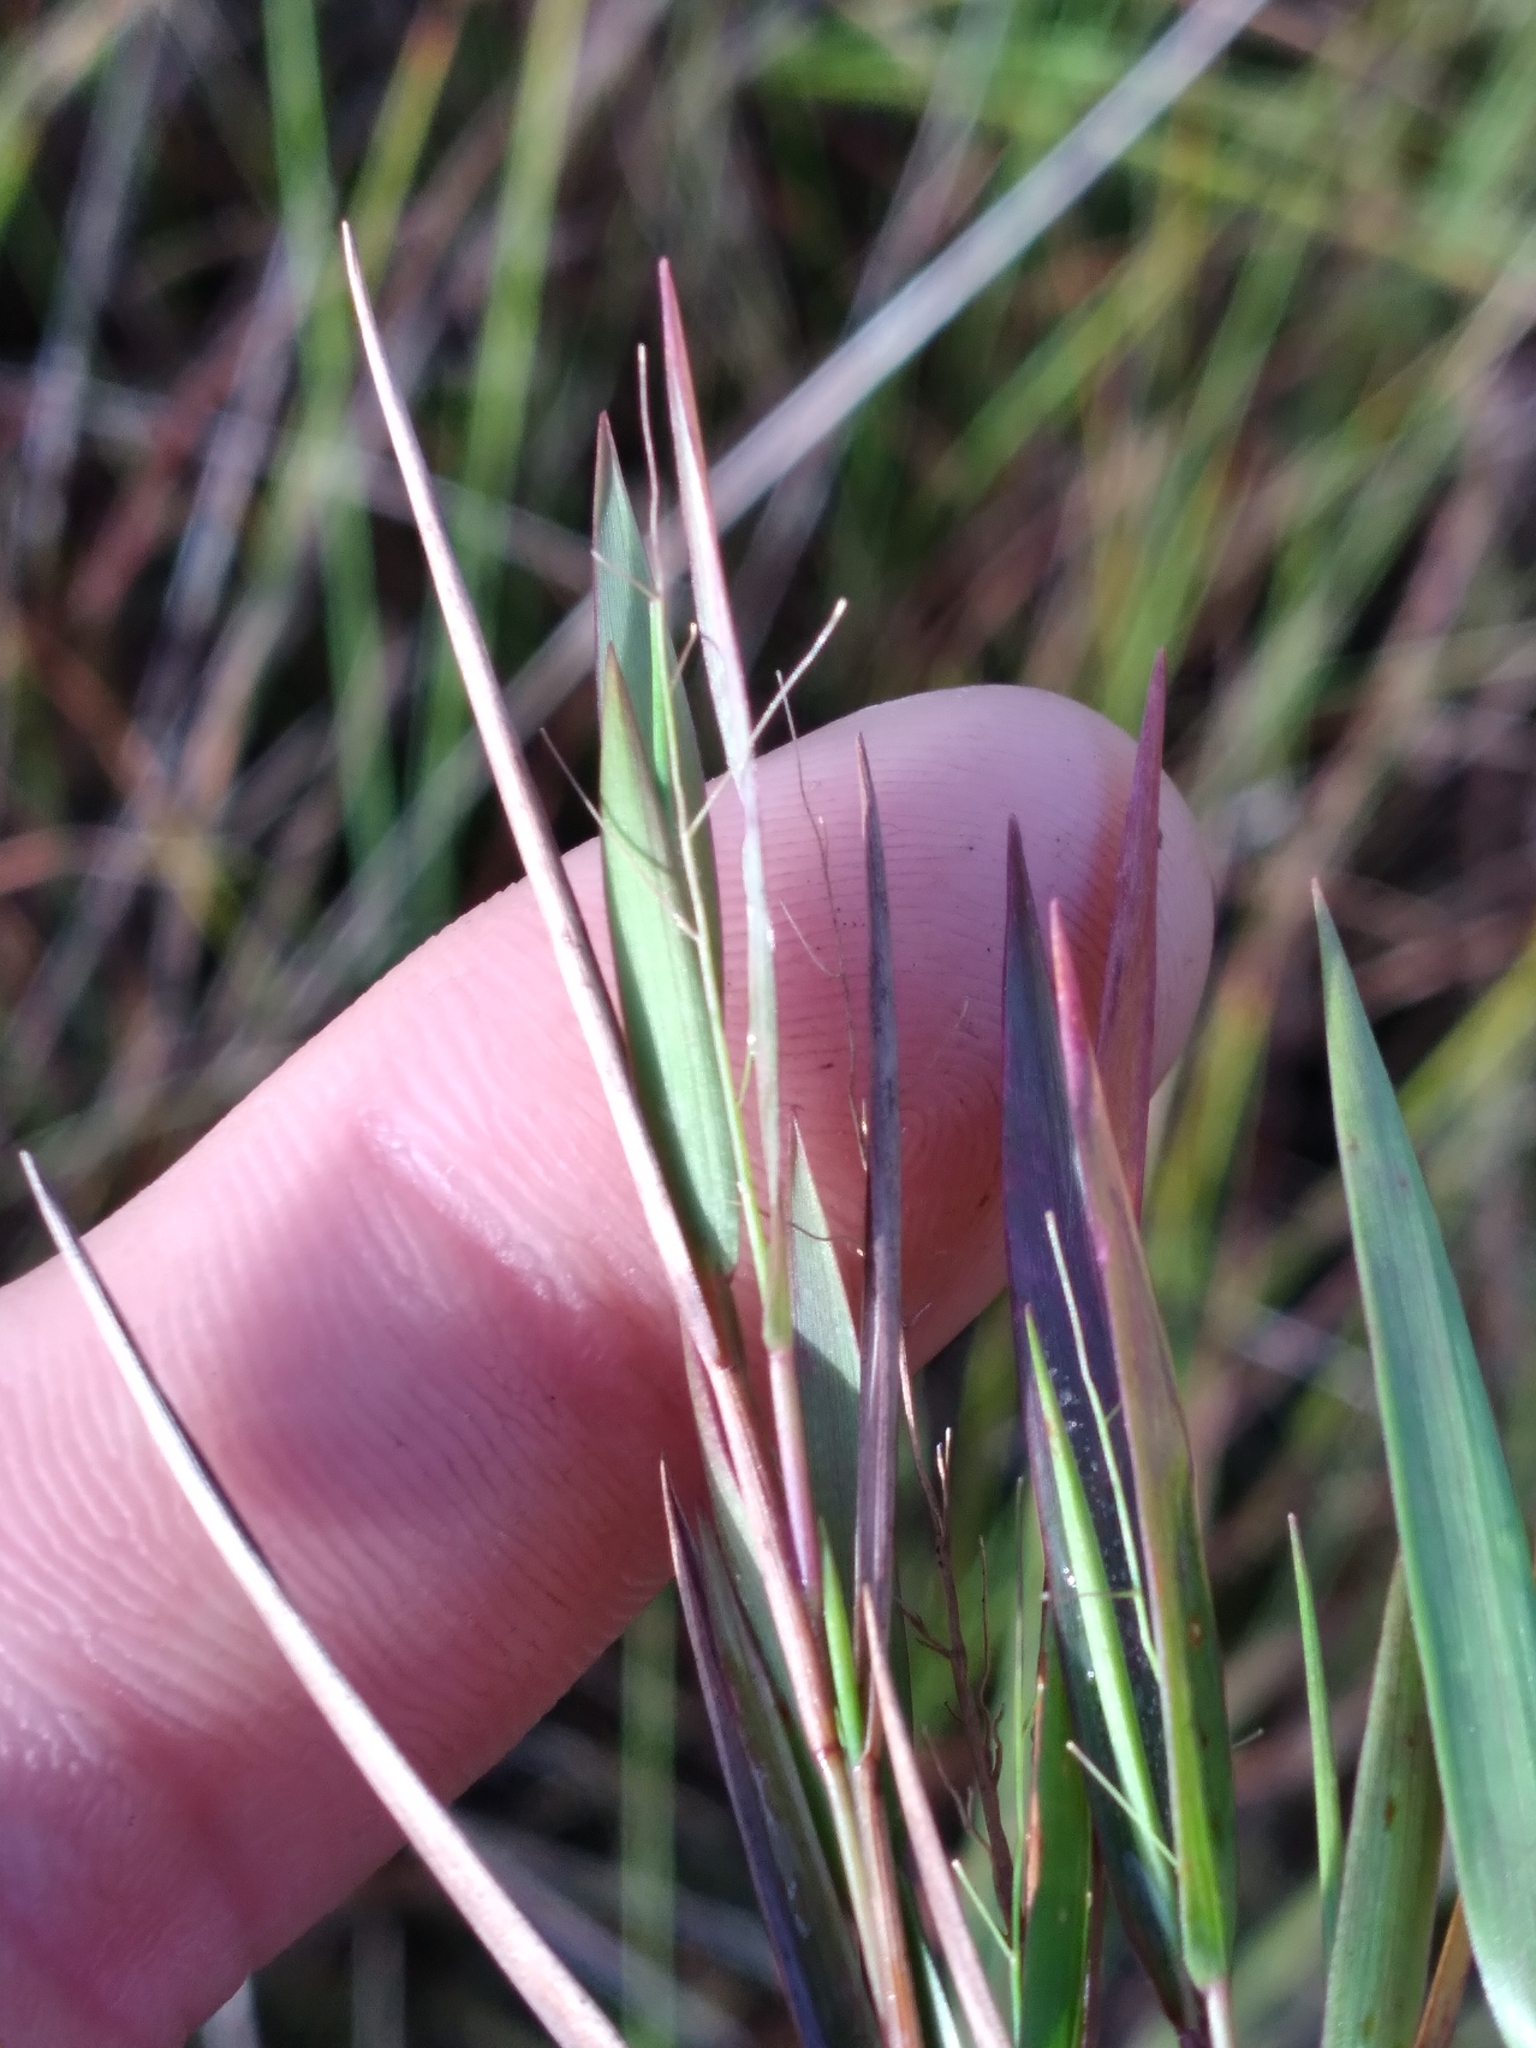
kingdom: Plantae
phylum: Tracheophyta
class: Liliopsida
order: Poales
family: Poaceae
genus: Dichanthelium
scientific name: Dichanthelium caerulescens
